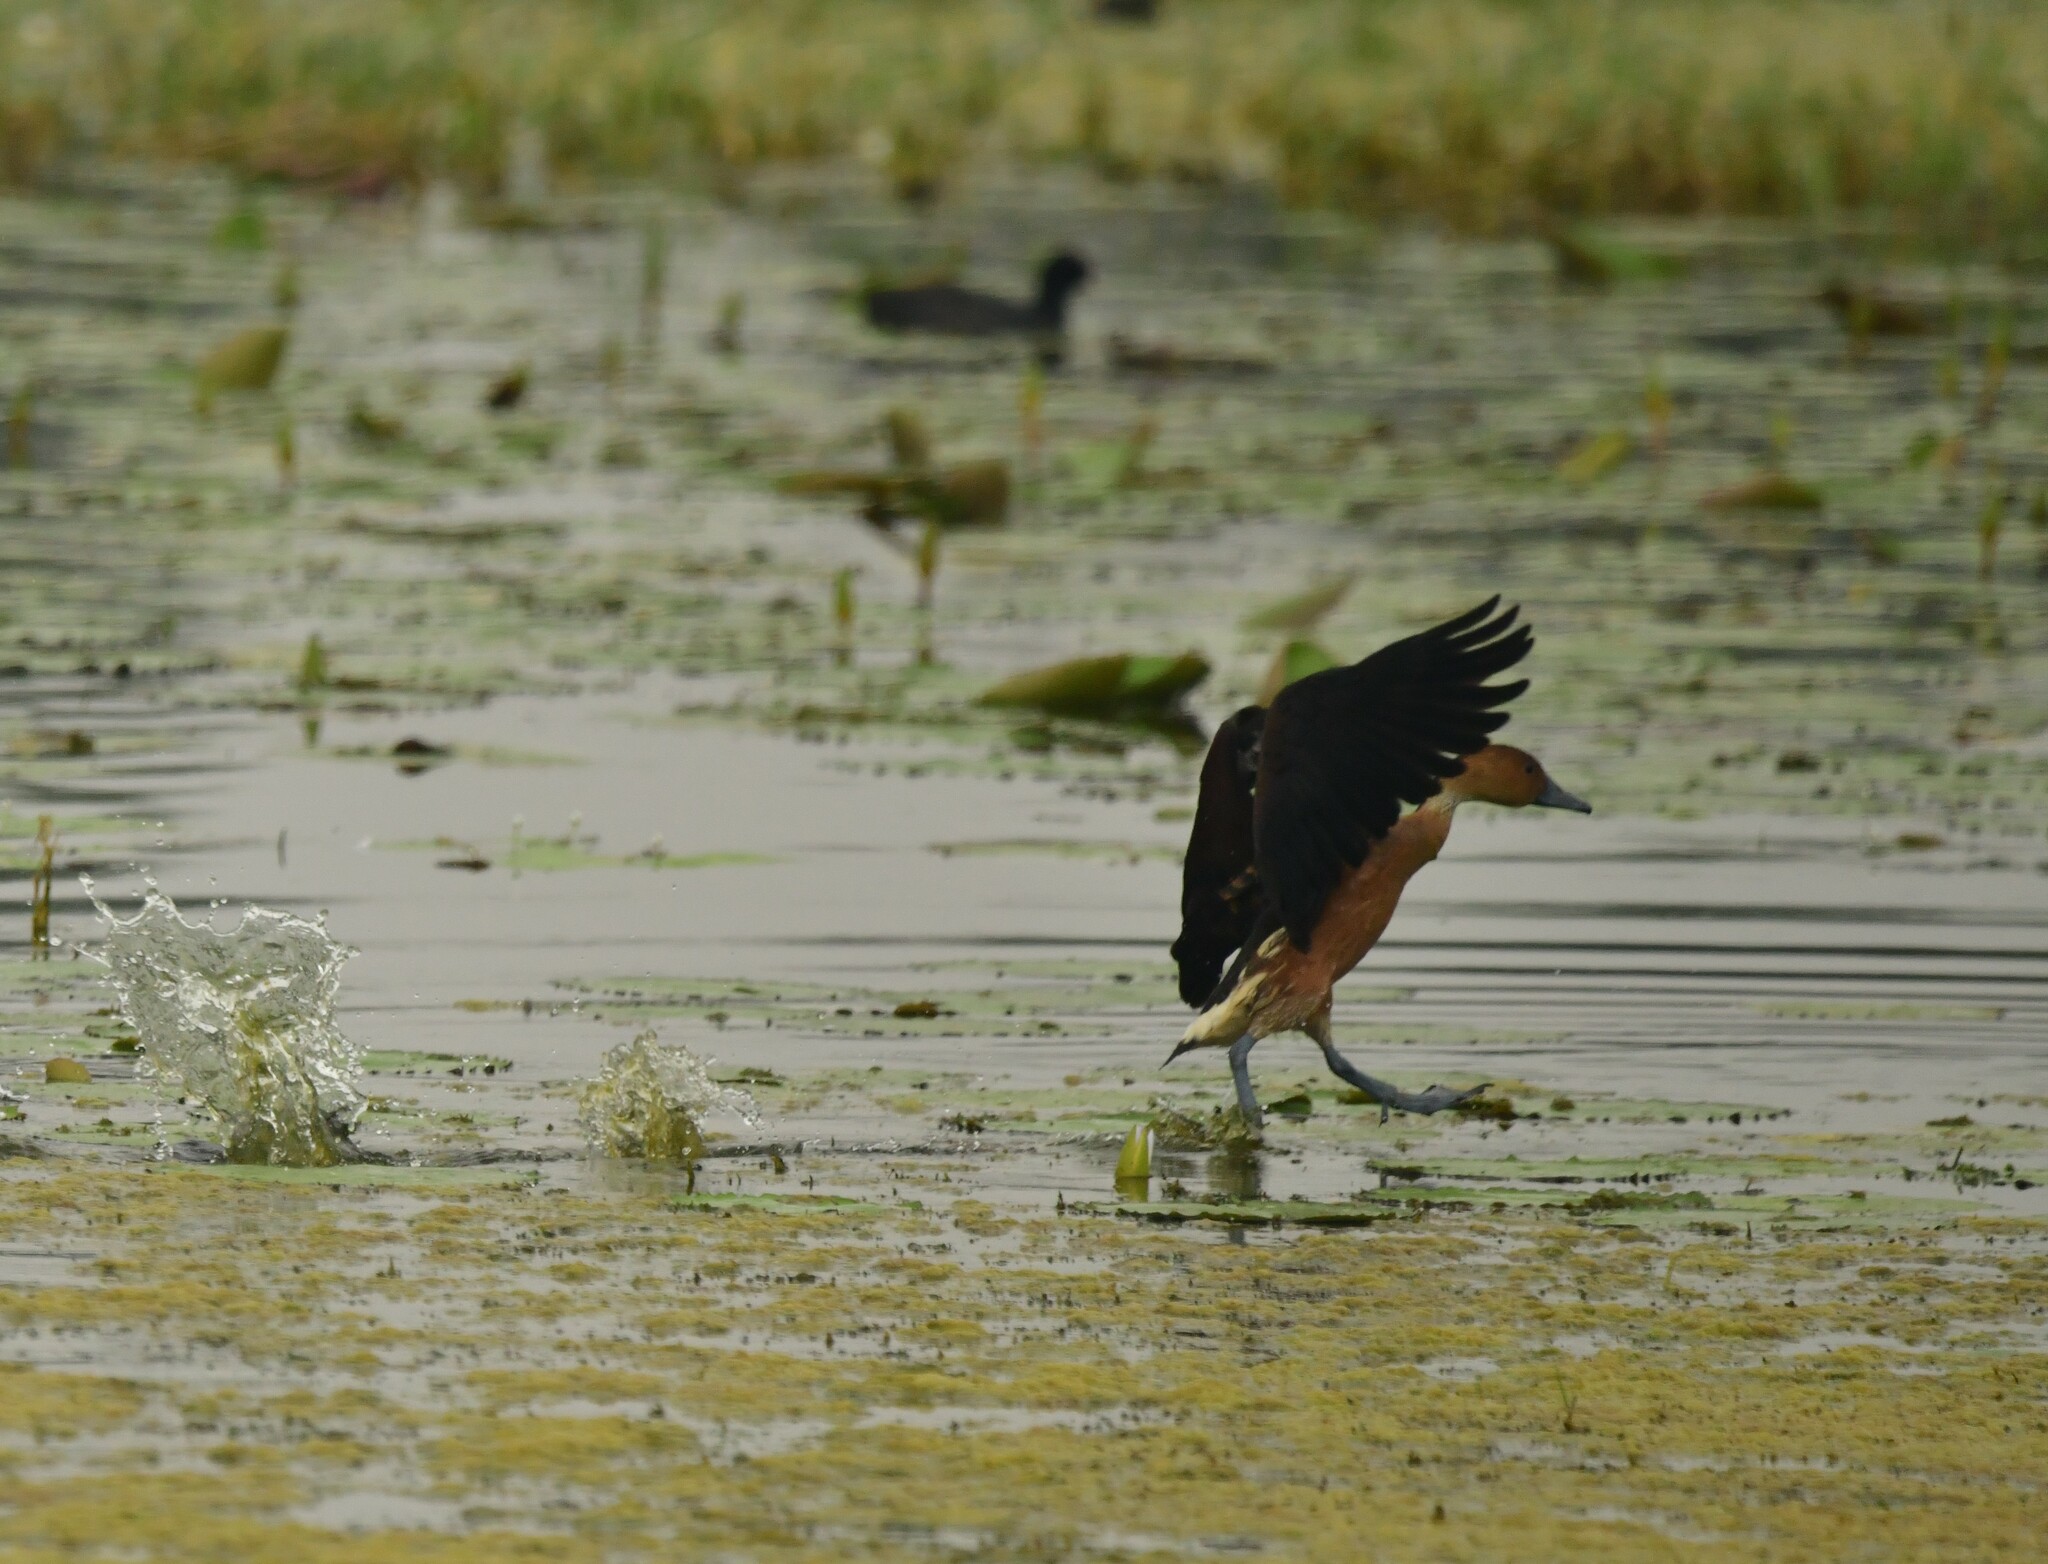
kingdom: Animalia
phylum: Chordata
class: Aves
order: Anseriformes
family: Anatidae
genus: Dendrocygna
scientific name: Dendrocygna javanica
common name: Lesser whistling-duck
